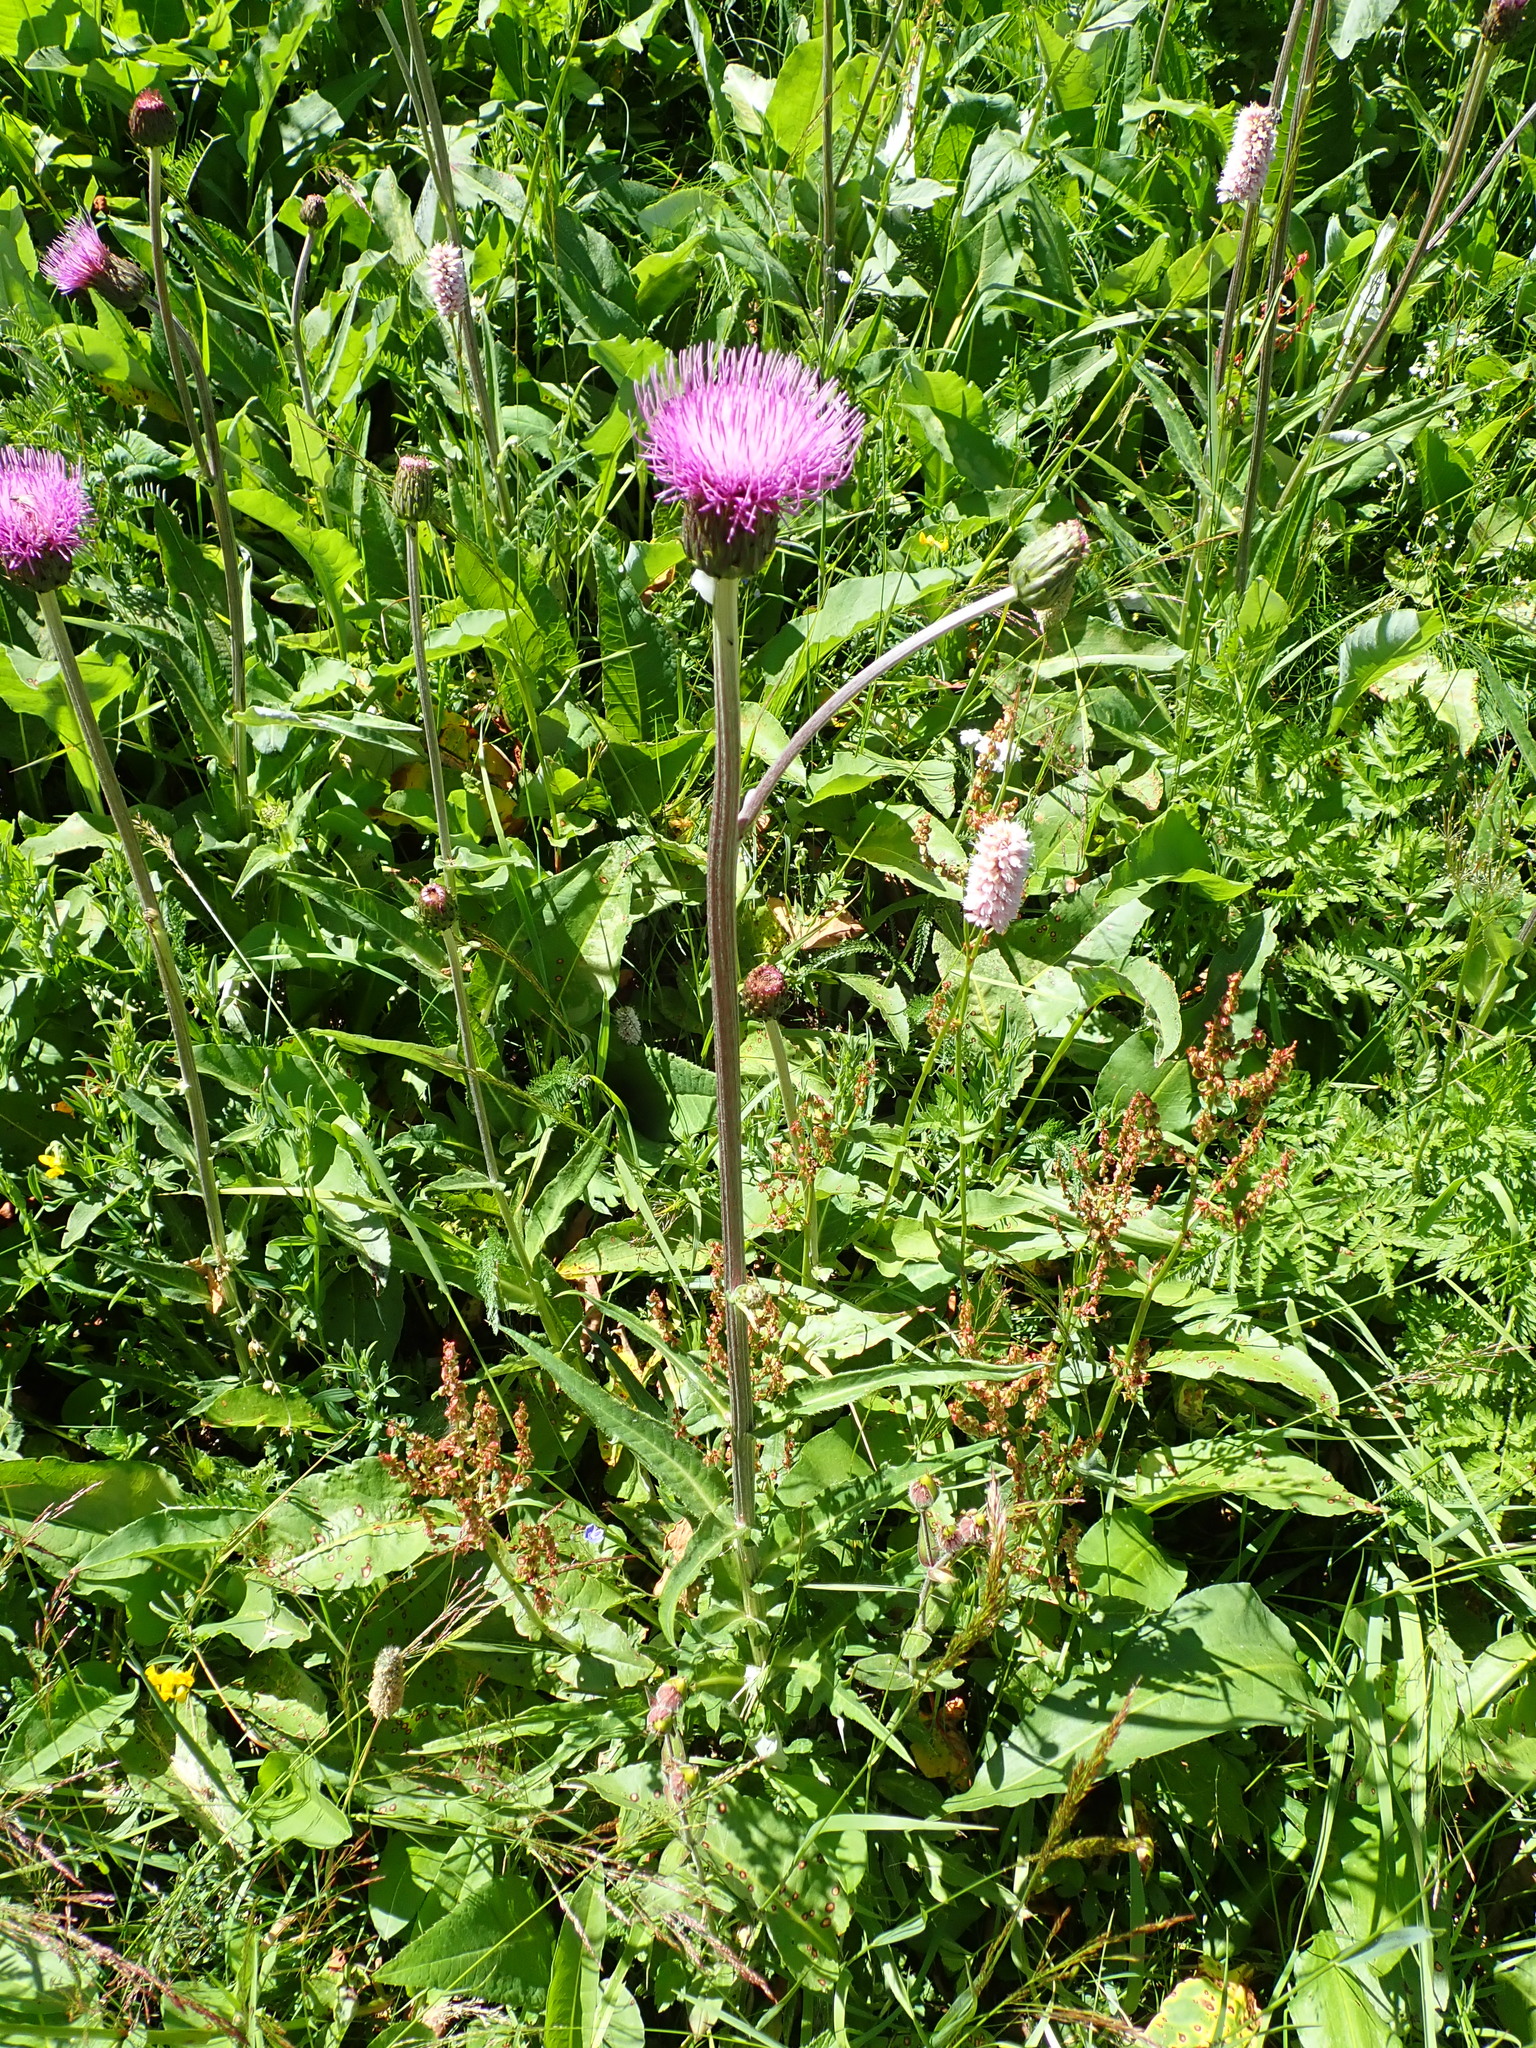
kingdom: Plantae
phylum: Tracheophyta
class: Magnoliopsida
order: Asterales
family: Asteraceae
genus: Cirsium
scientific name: Cirsium heterophyllum
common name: Melancholy thistle
